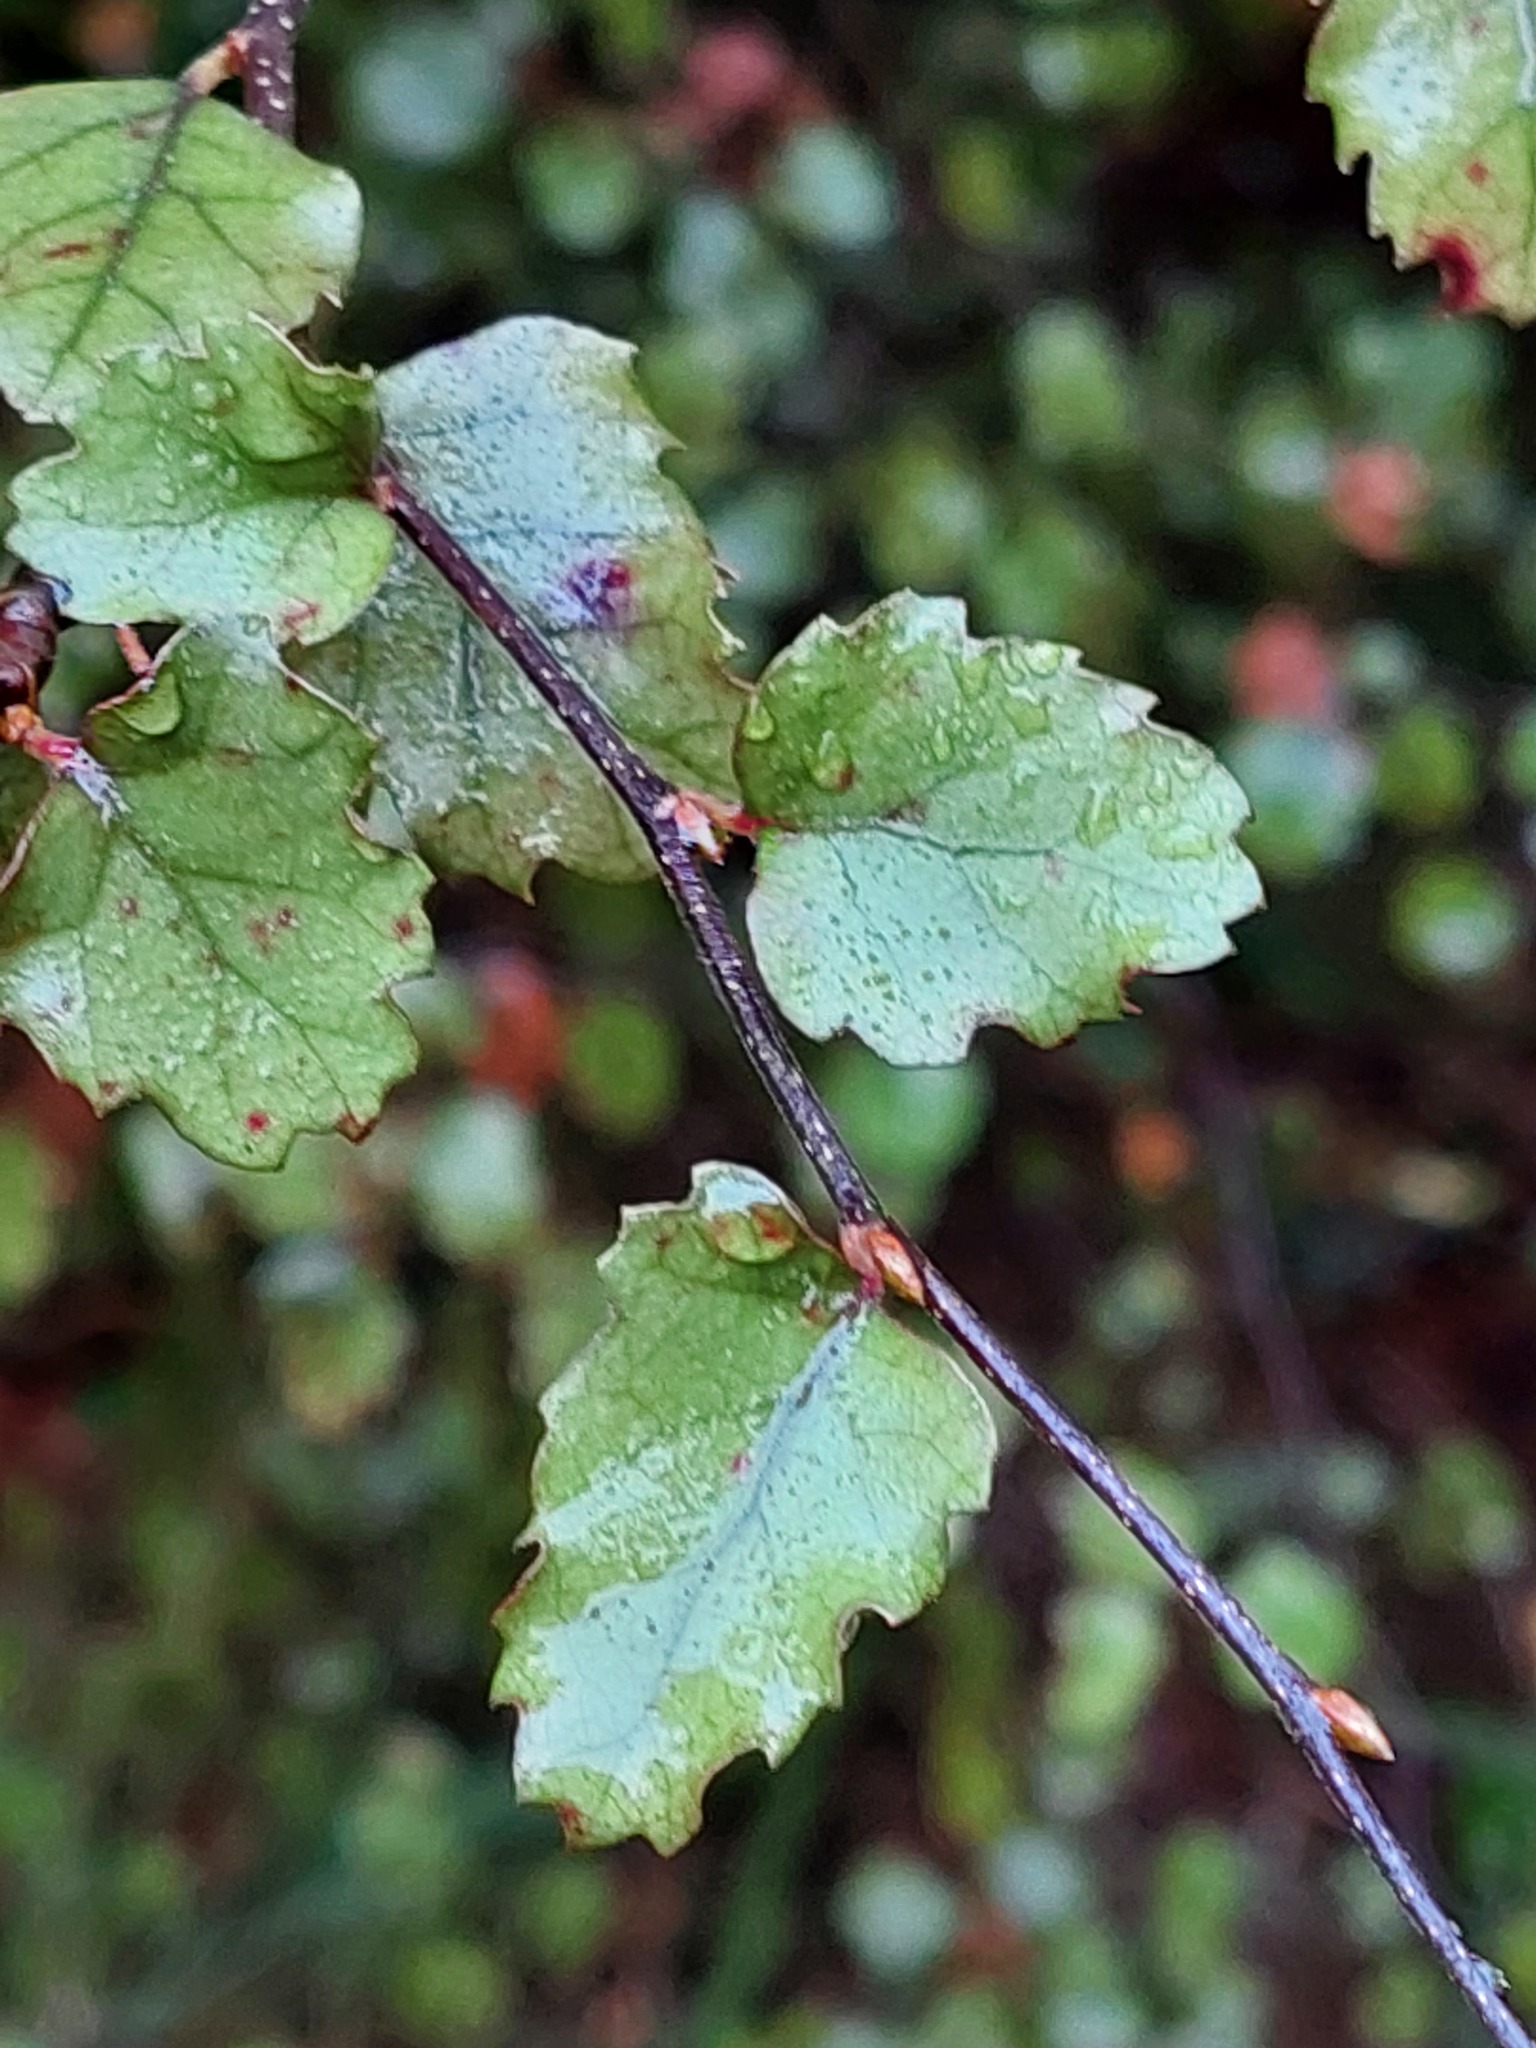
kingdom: Plantae
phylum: Tracheophyta
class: Magnoliopsida
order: Fagales
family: Nothofagaceae
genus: Nothofagus
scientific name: Nothofagus fusca
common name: Red beech
